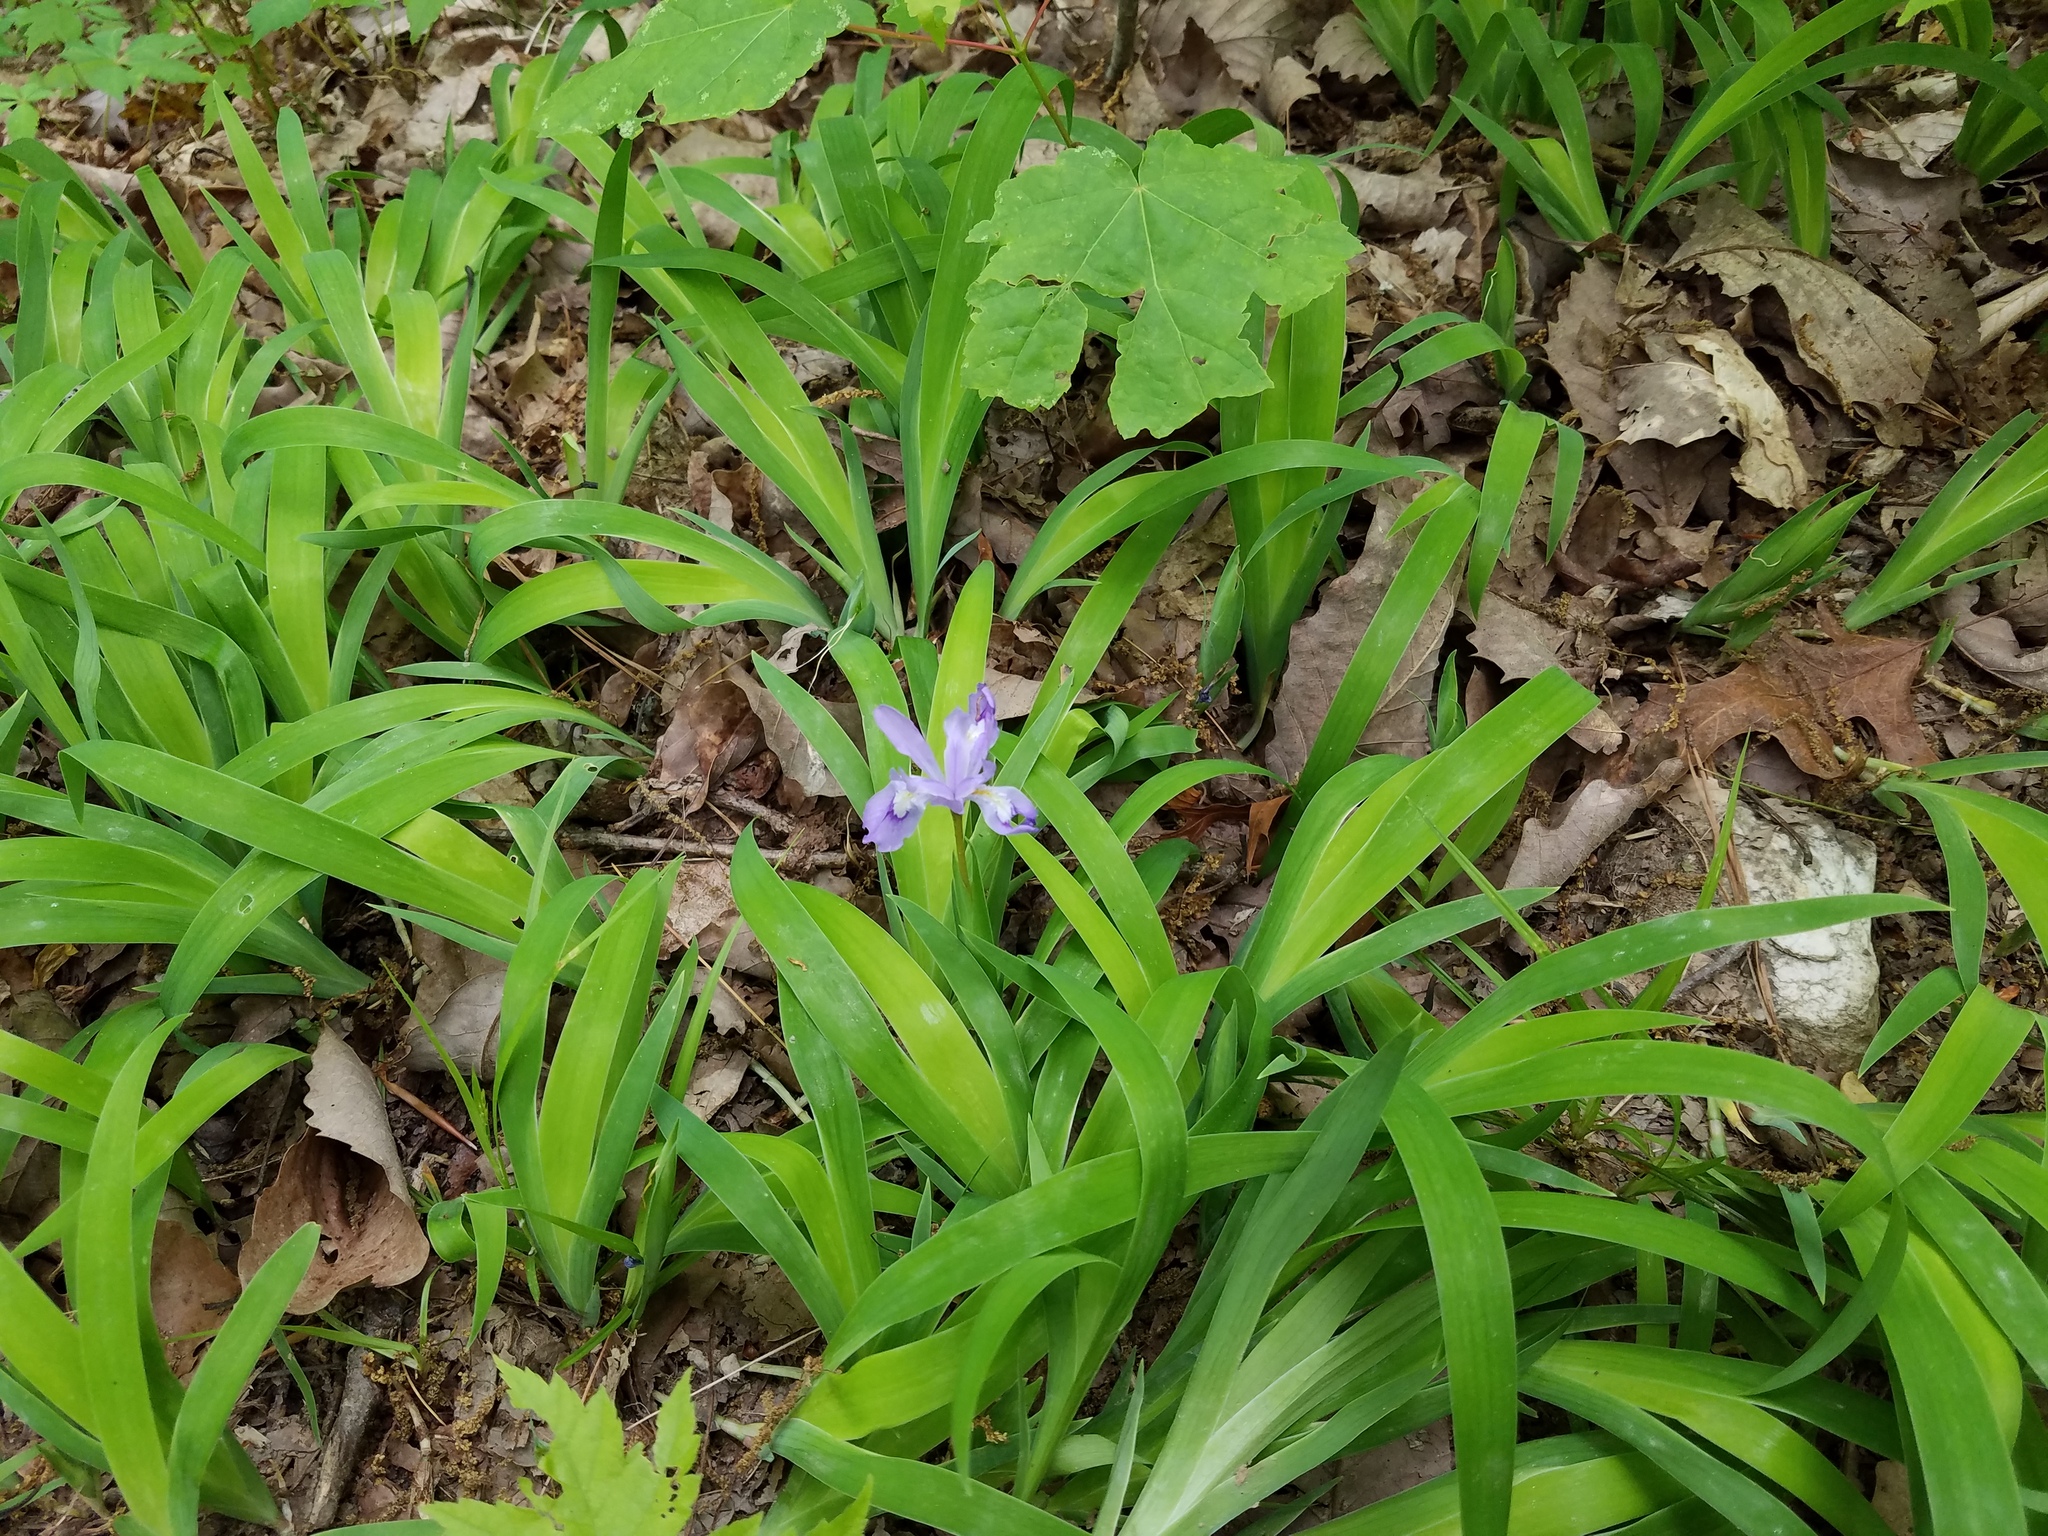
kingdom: Plantae
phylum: Tracheophyta
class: Liliopsida
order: Asparagales
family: Iridaceae
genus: Iris
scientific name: Iris cristata
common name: Crested iris
